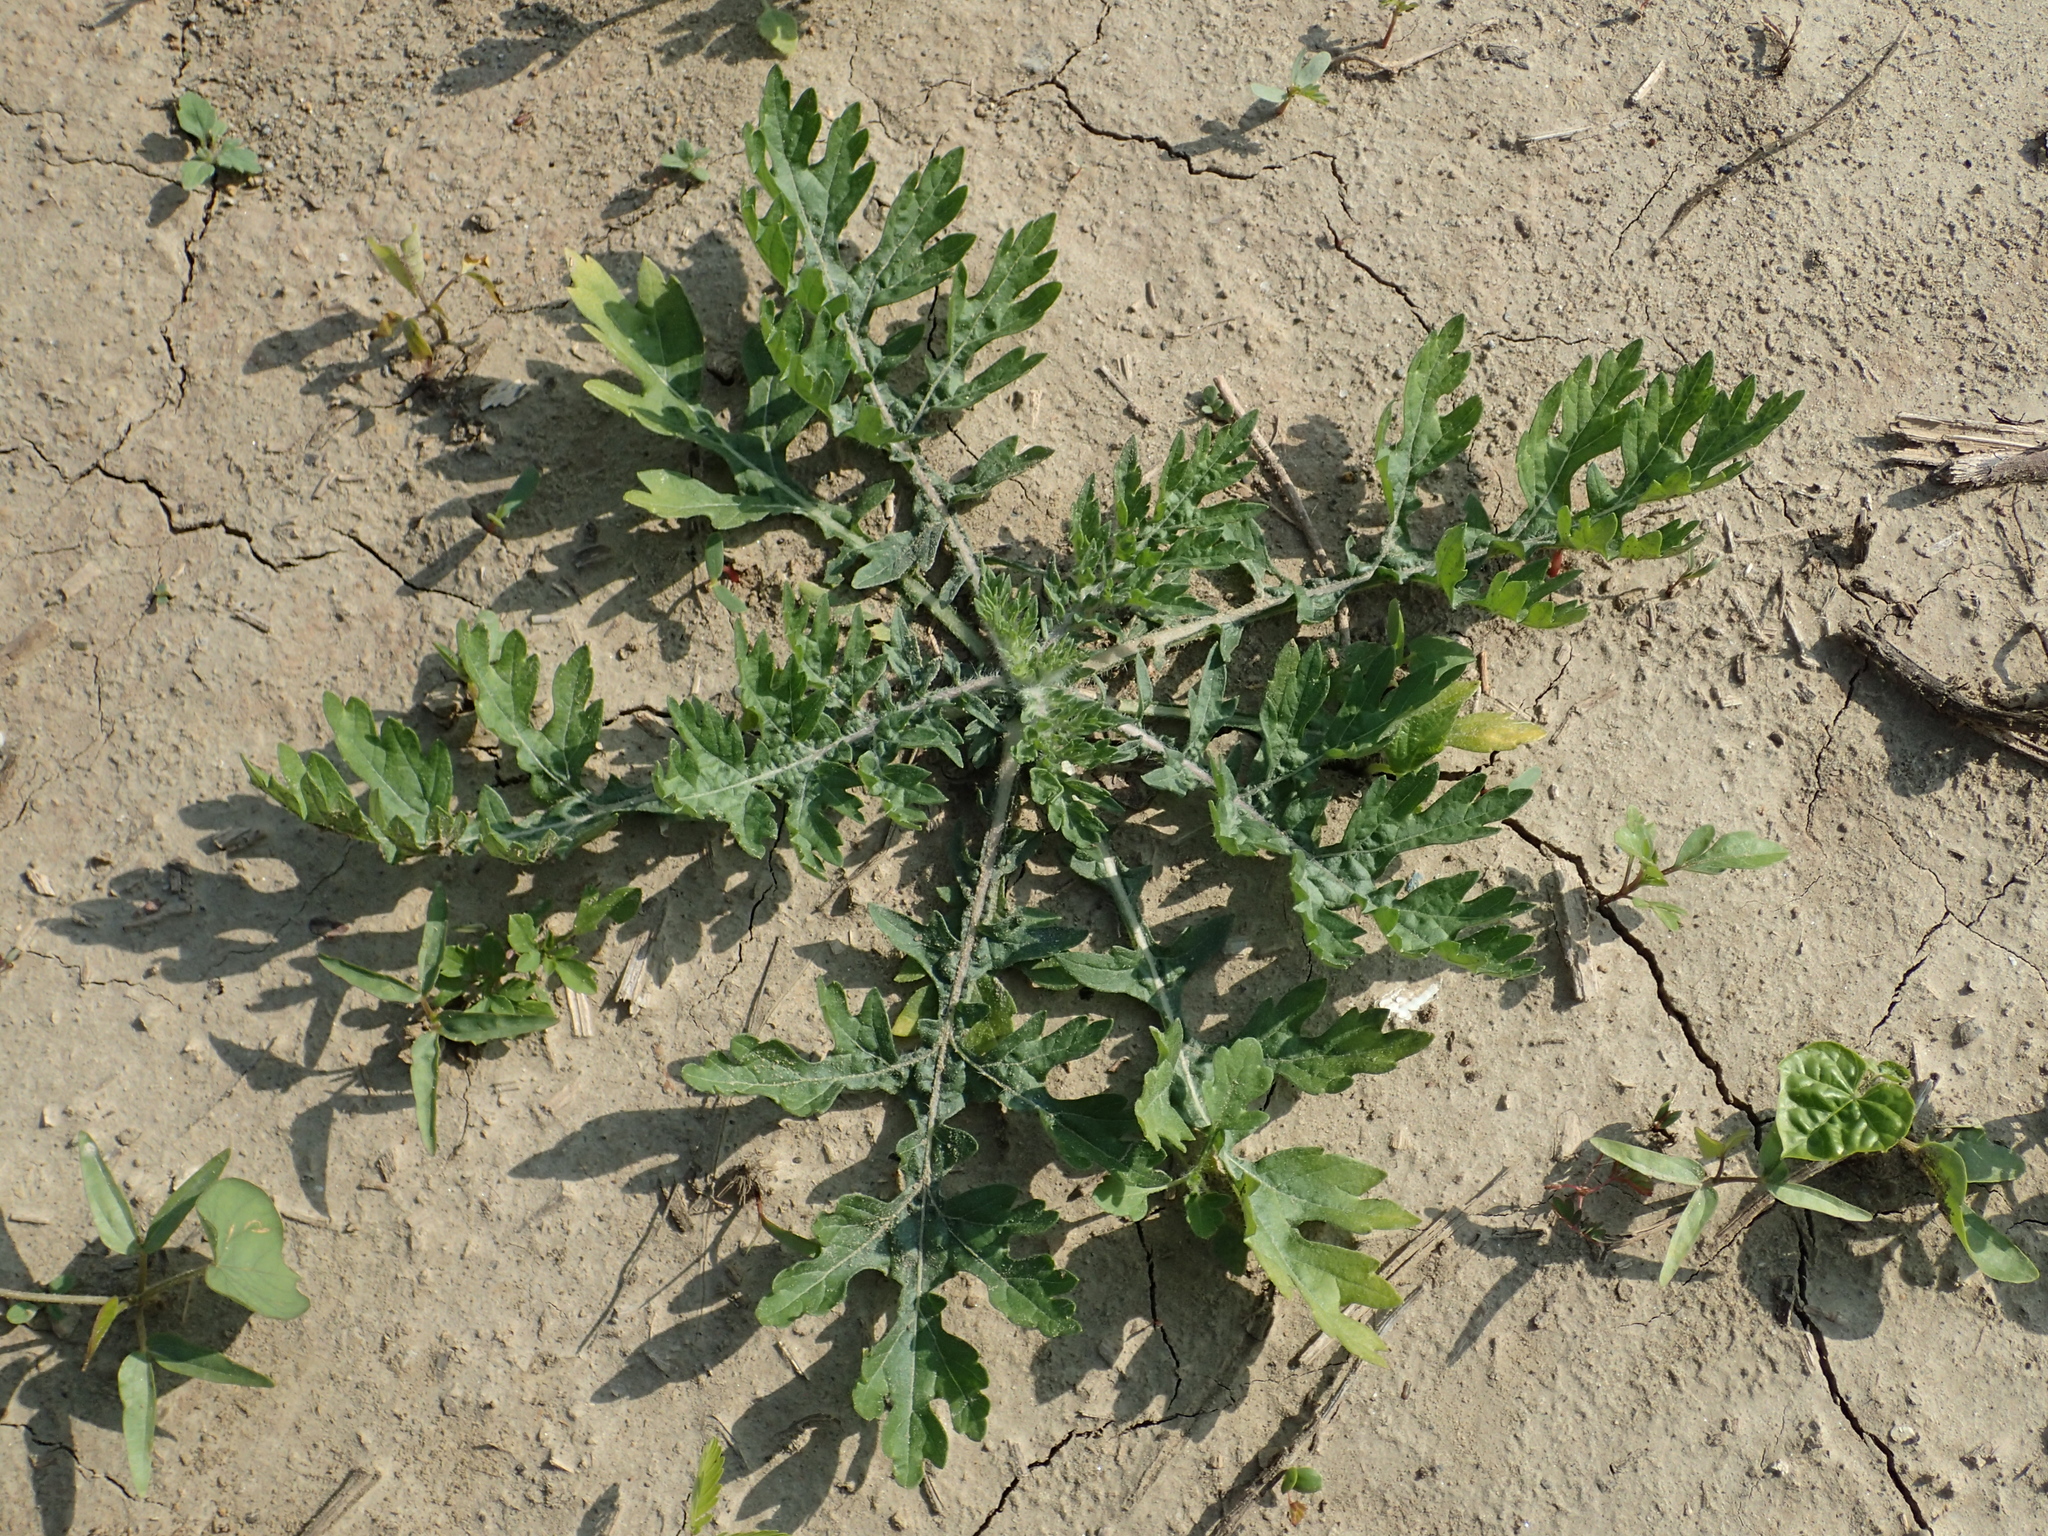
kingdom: Plantae
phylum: Tracheophyta
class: Magnoliopsida
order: Asterales
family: Asteraceae
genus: Parthenium
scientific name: Parthenium hysterophorus
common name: Santa maria feverfew
